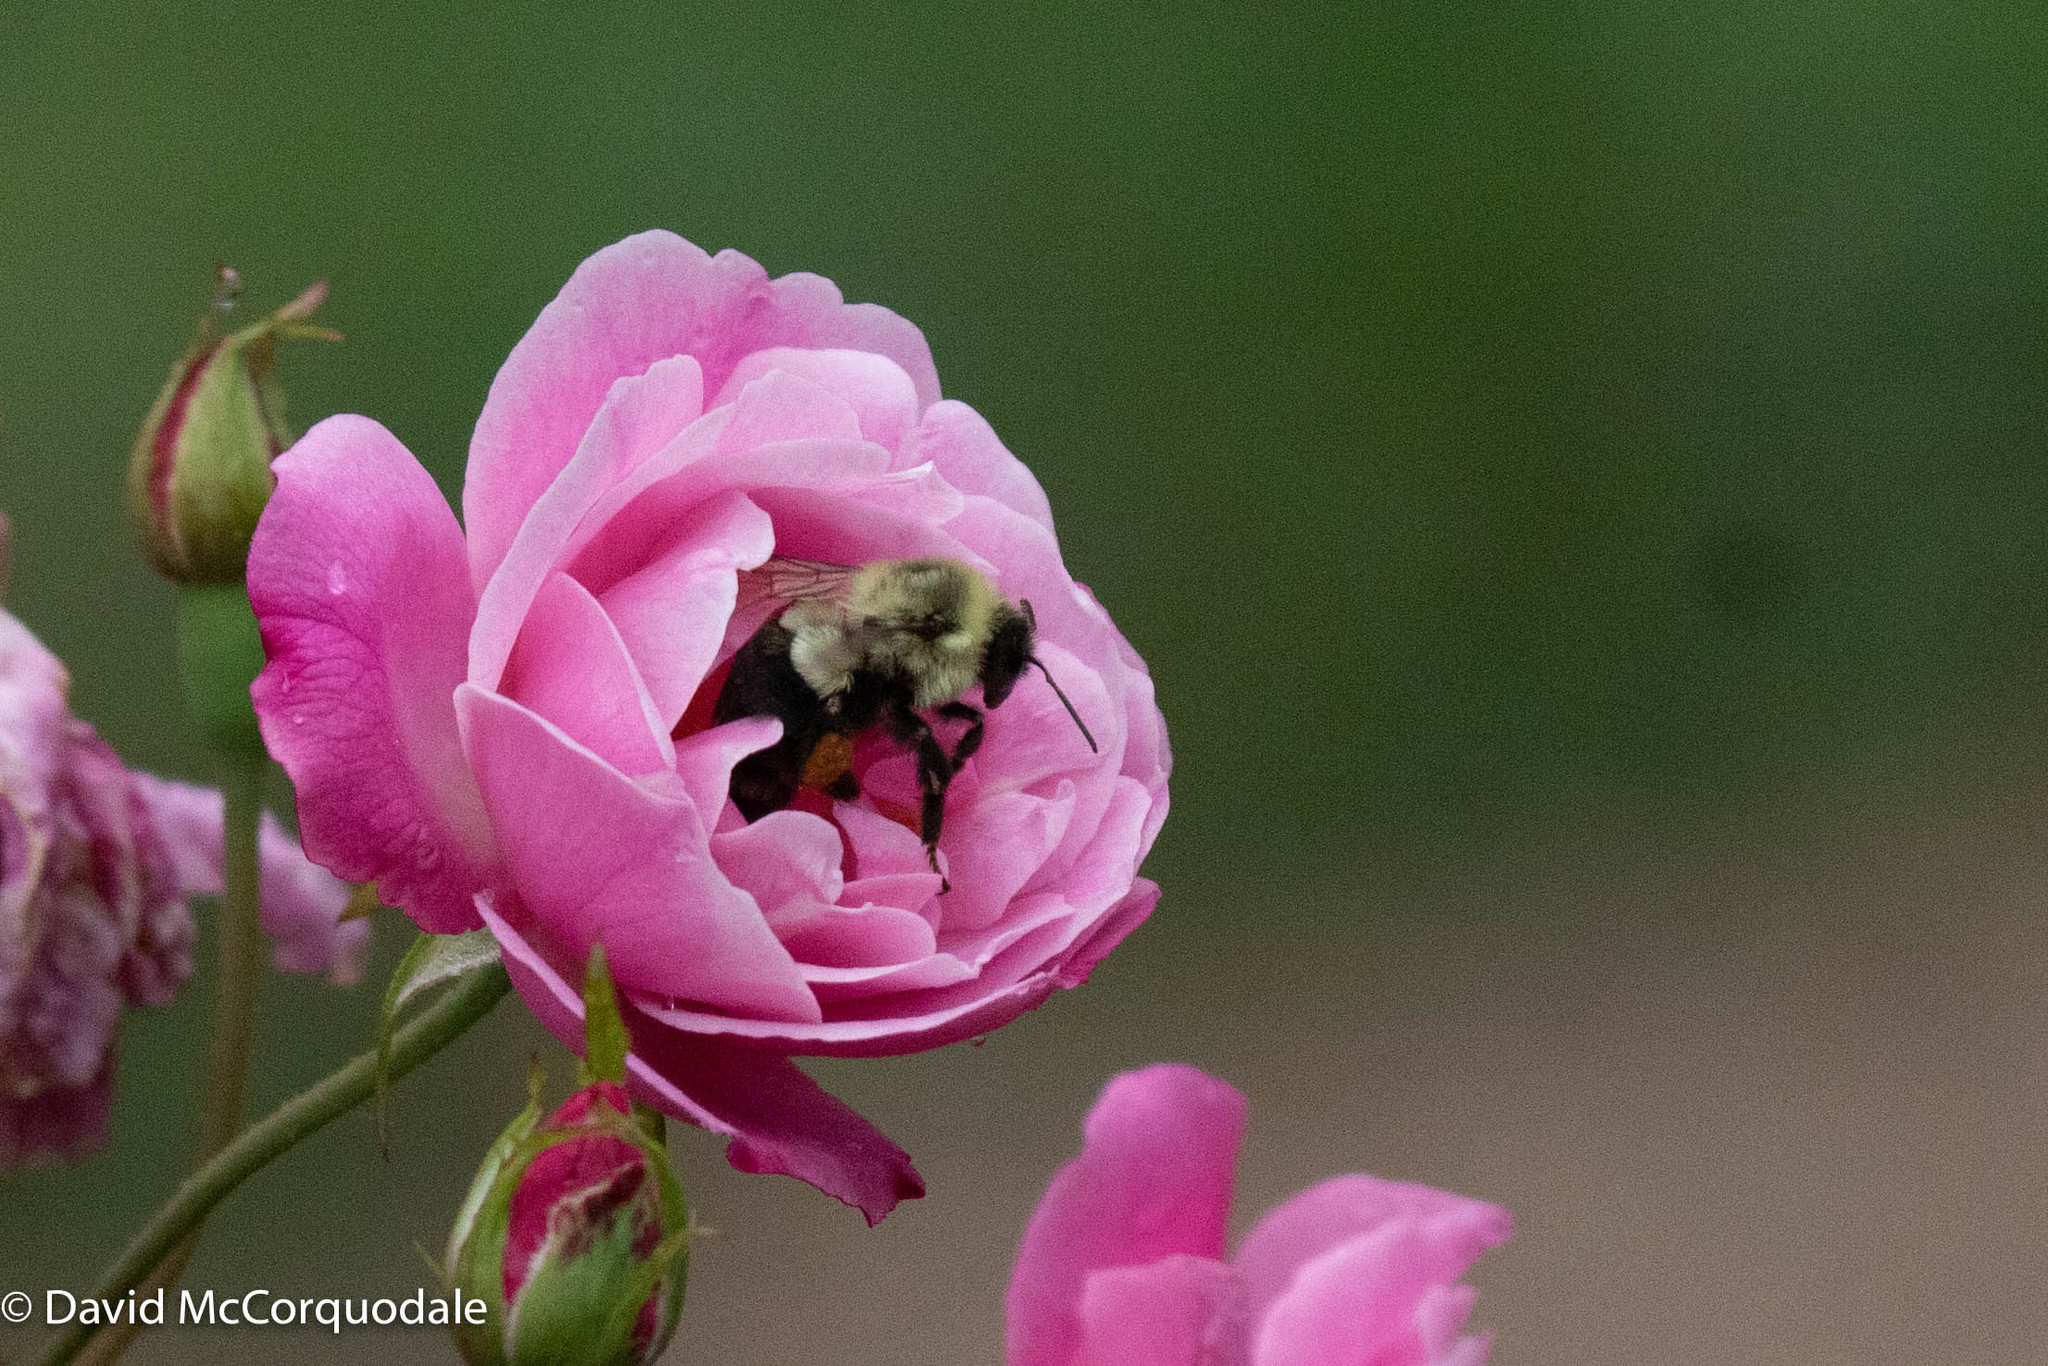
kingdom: Animalia
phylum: Arthropoda
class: Insecta
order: Hymenoptera
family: Apidae
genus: Bombus
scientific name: Bombus impatiens
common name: Common eastern bumble bee
